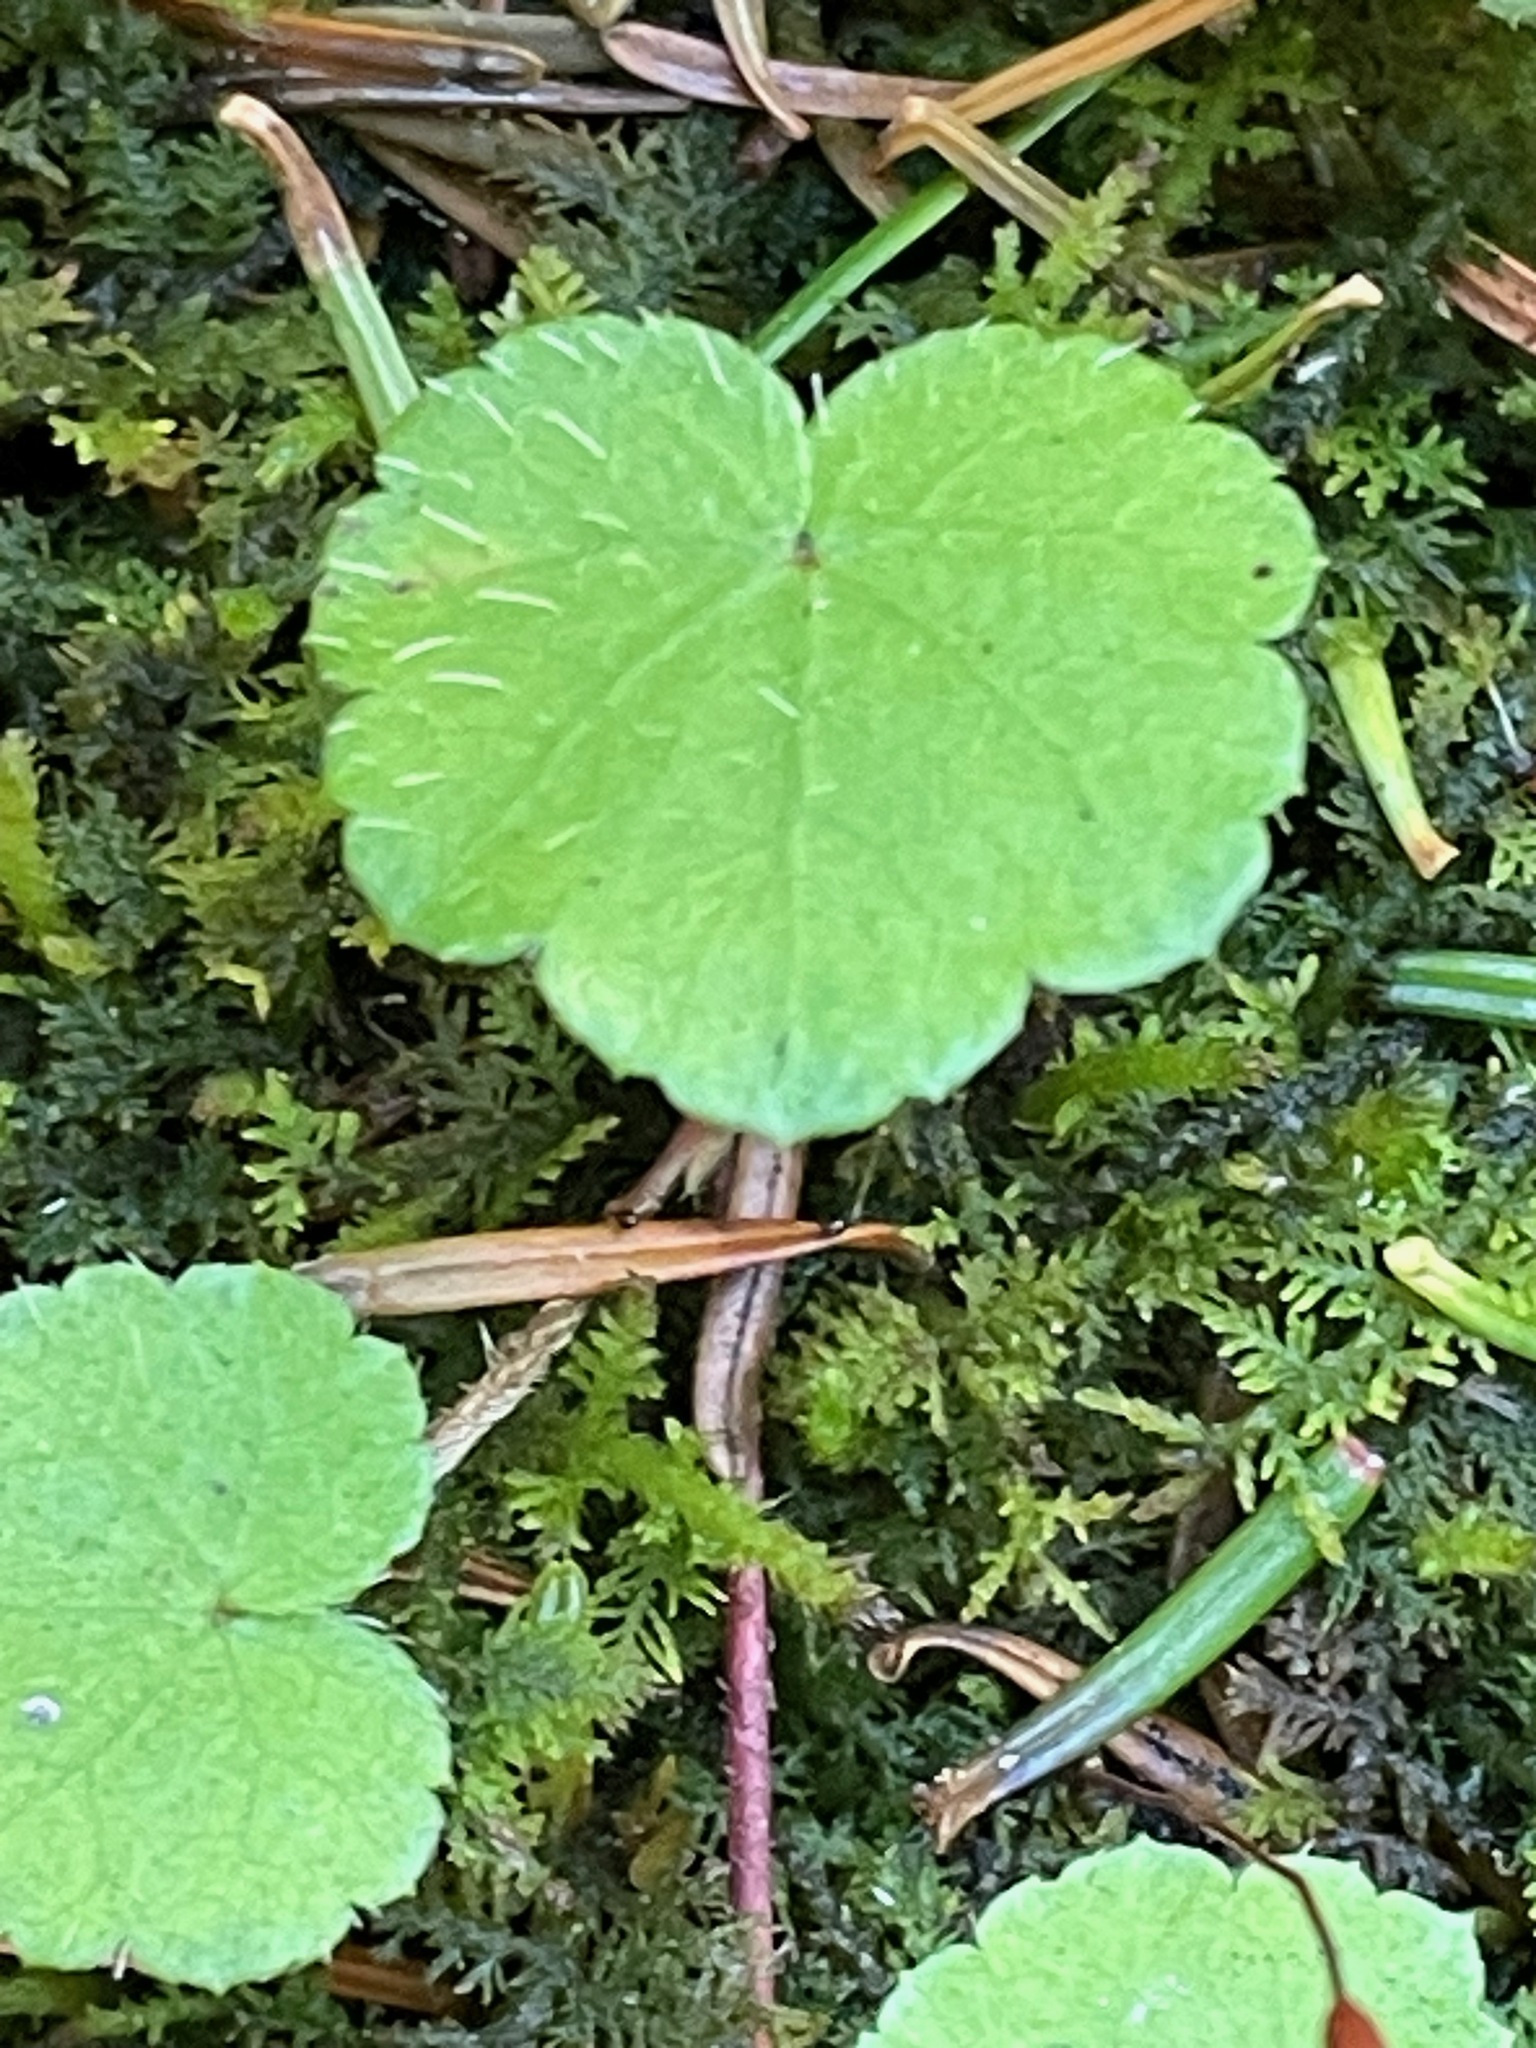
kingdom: Plantae
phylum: Tracheophyta
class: Magnoliopsida
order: Saxifragales
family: Saxifragaceae
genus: Mitella
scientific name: Mitella nuda
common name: Bare-stemmed bishop's-cap
